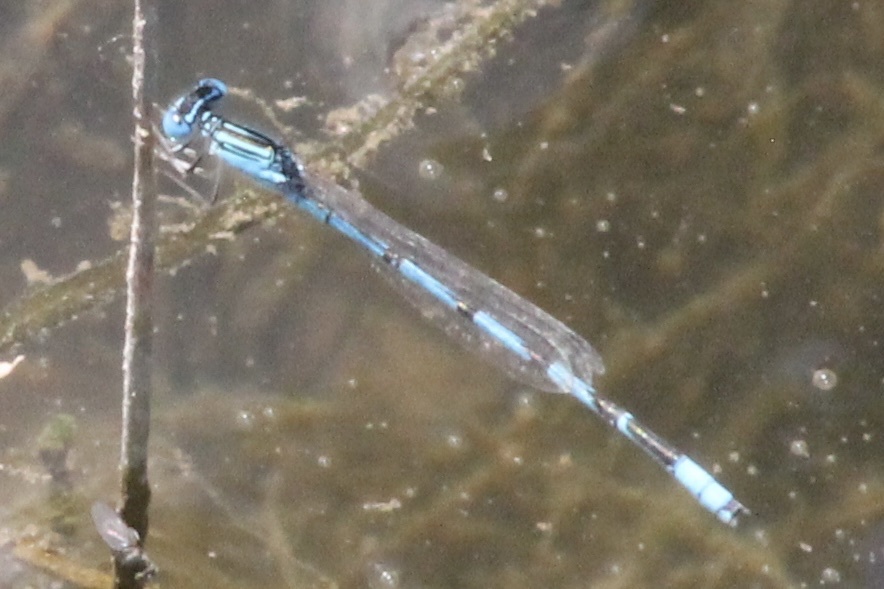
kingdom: Animalia
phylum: Arthropoda
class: Insecta
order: Odonata
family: Coenagrionidae
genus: Enallagma
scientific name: Enallagma basidens
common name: Double-striped bluet
